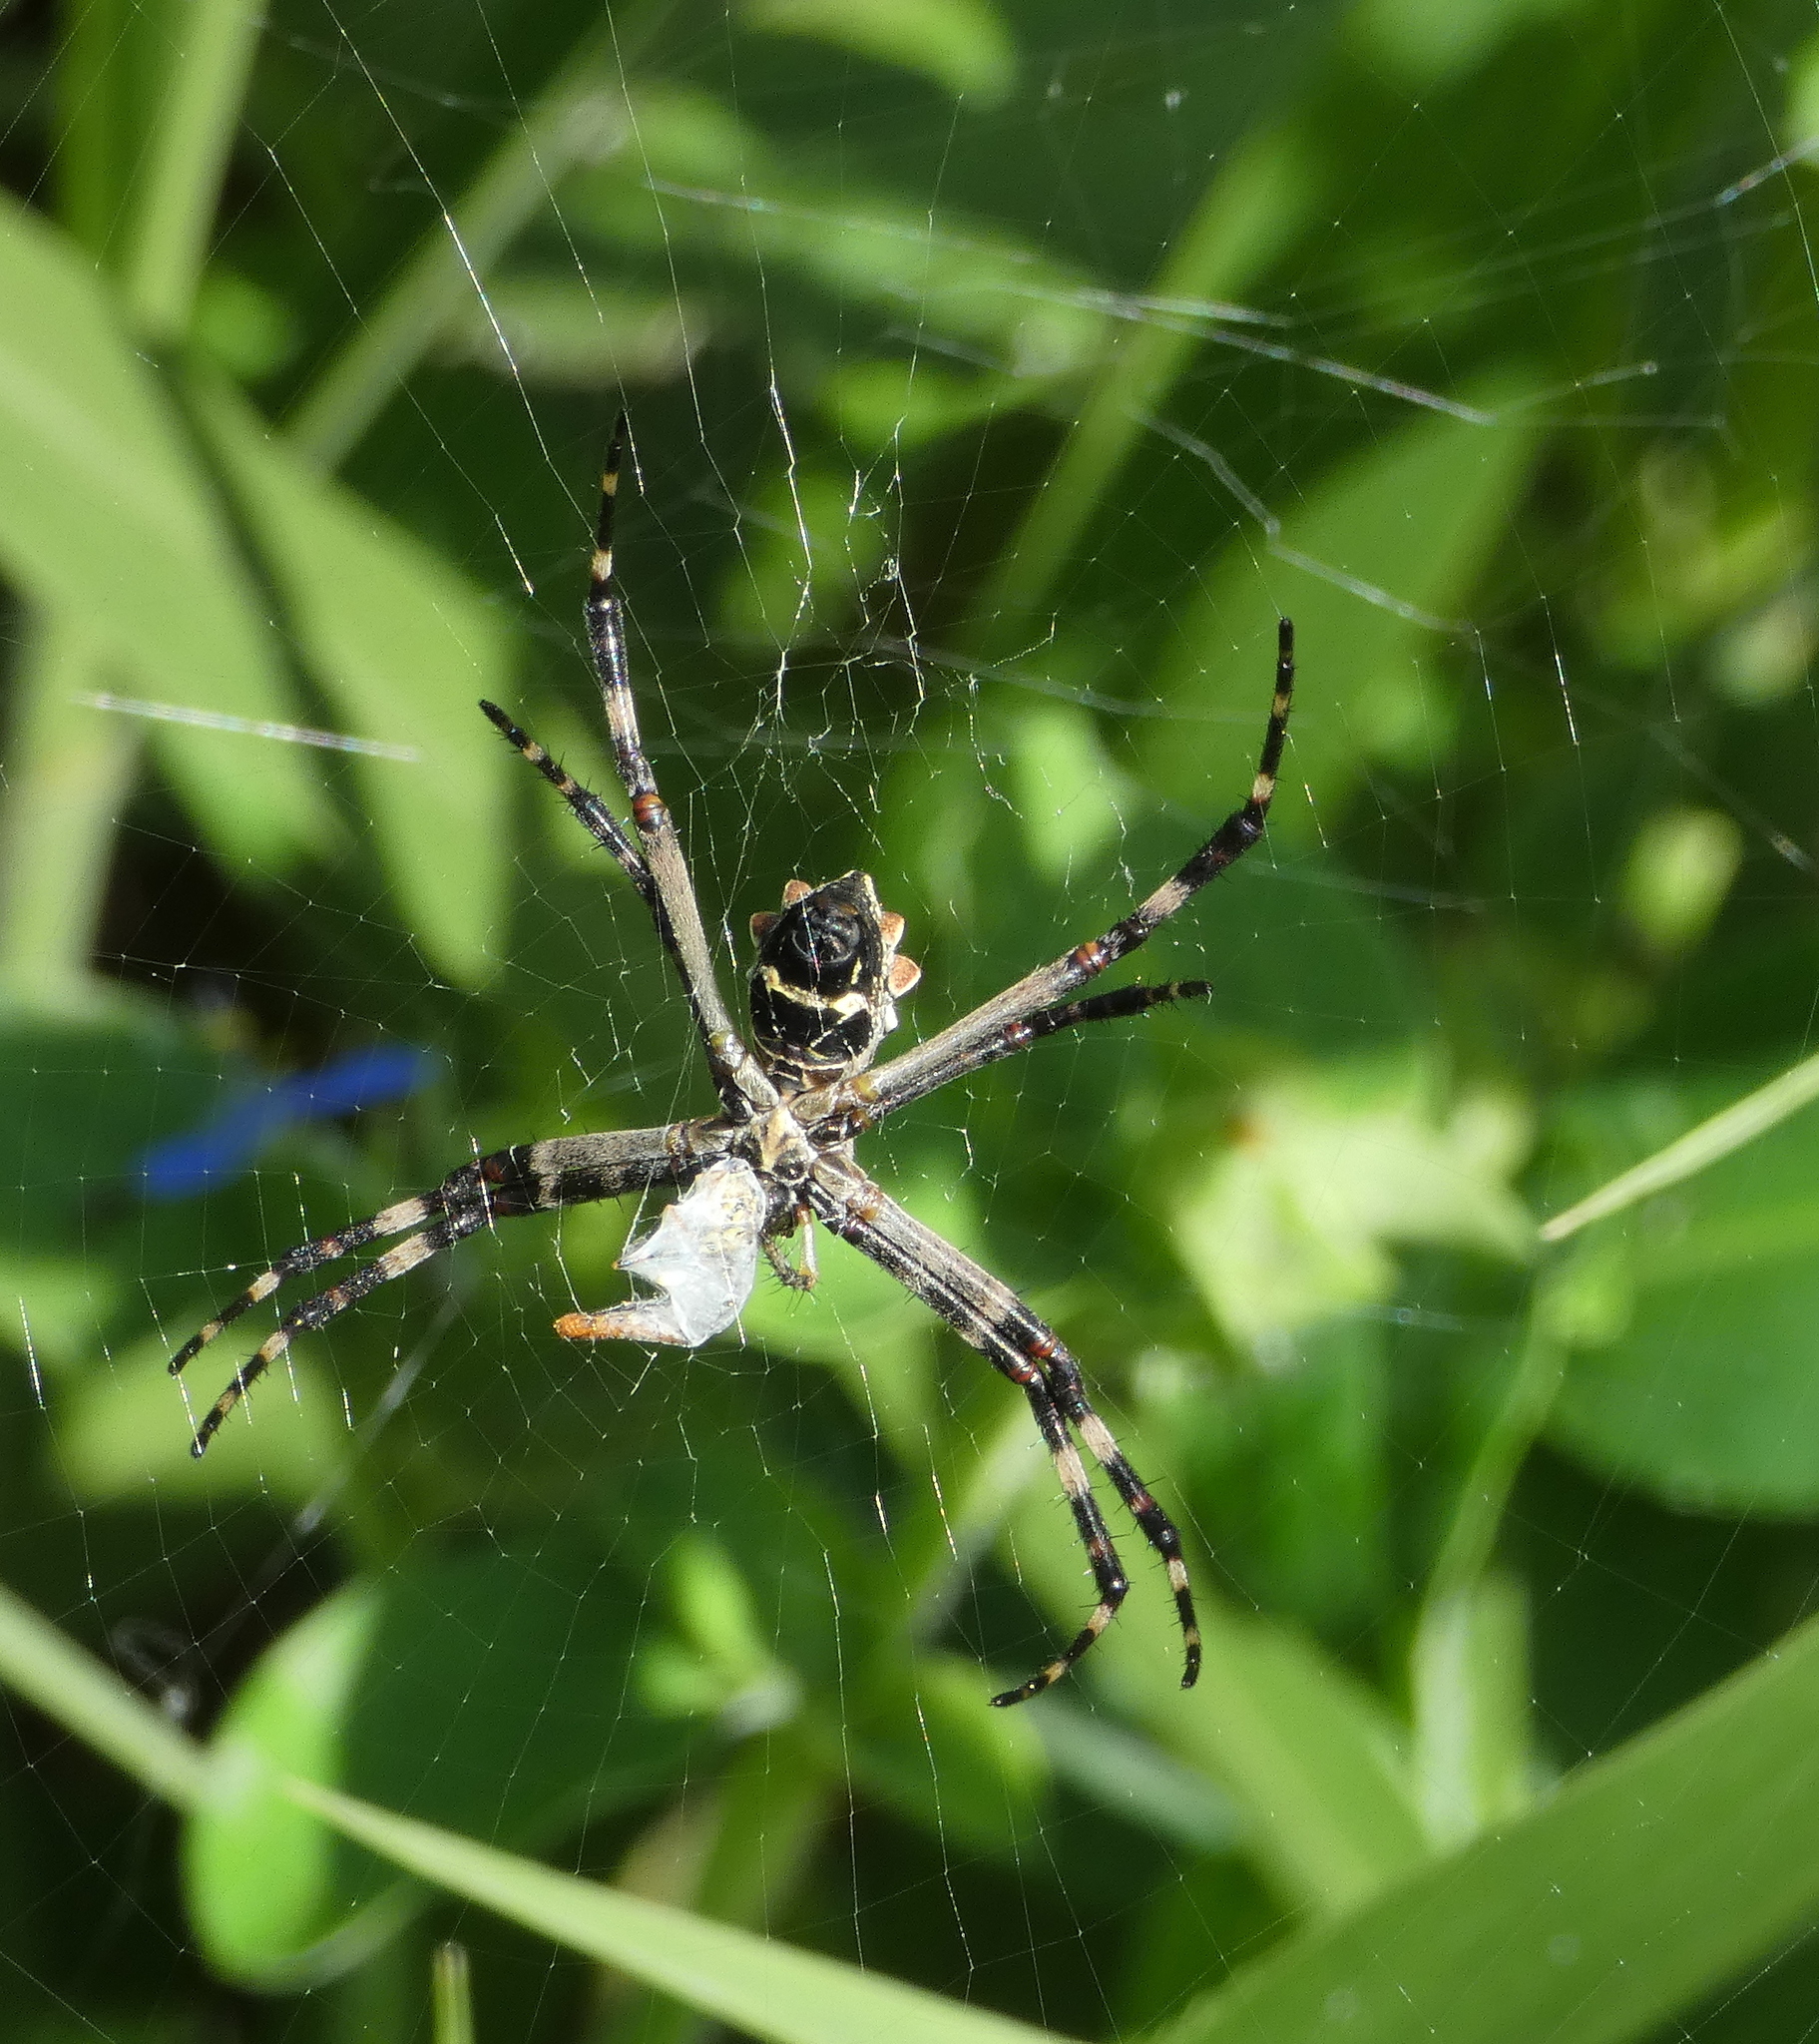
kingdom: Animalia
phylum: Arthropoda
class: Arachnida
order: Araneae
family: Araneidae
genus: Argiope
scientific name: Argiope argentata
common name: Orb weavers
